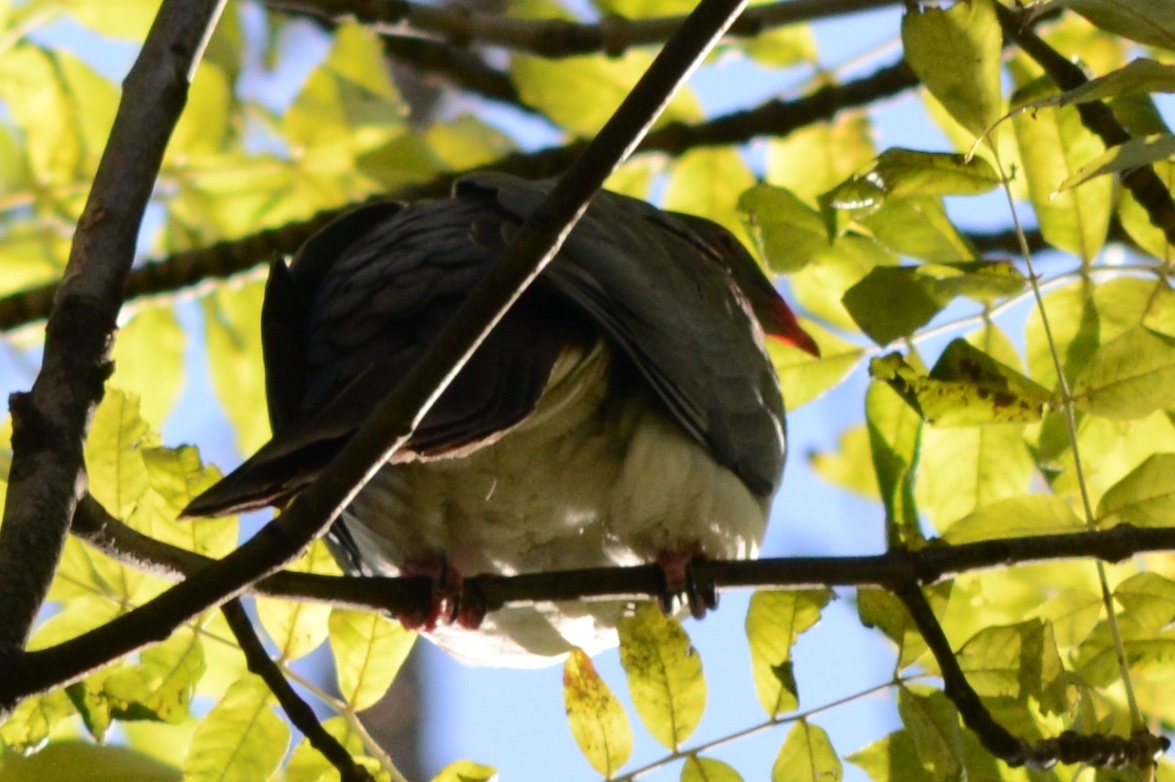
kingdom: Animalia
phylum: Chordata
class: Aves
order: Columbiformes
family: Columbidae
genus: Hemiphaga
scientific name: Hemiphaga novaeseelandiae
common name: New zealand pigeon
